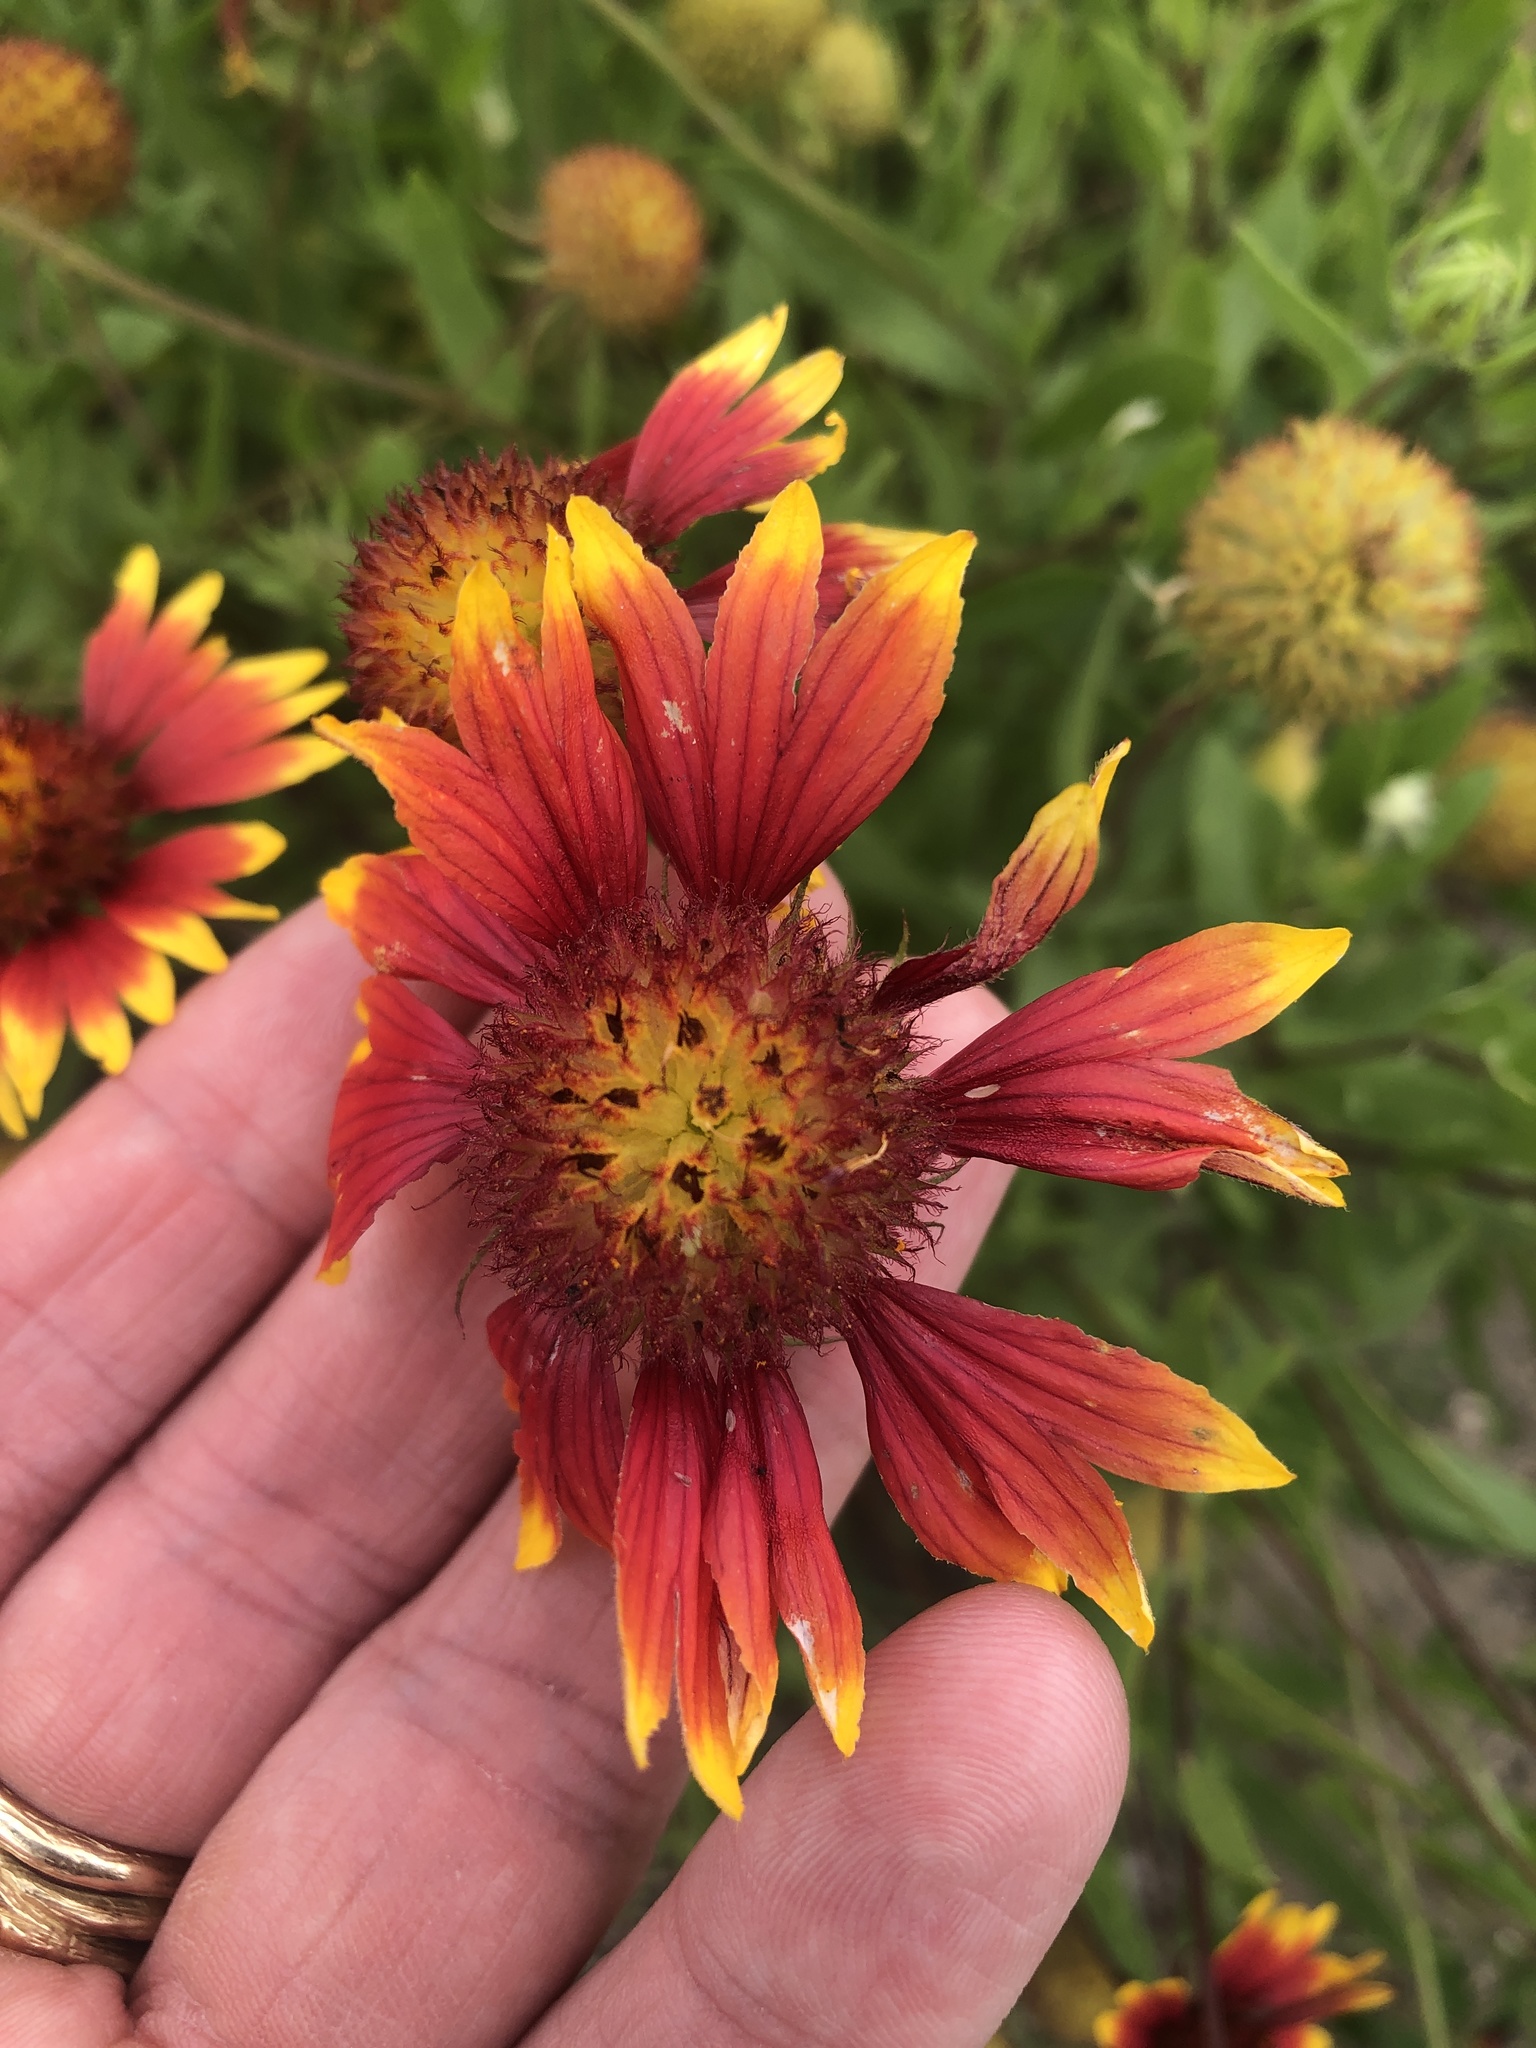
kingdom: Plantae
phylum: Tracheophyta
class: Magnoliopsida
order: Asterales
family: Asteraceae
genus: Gaillardia
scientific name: Gaillardia pulchella
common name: Firewheel
